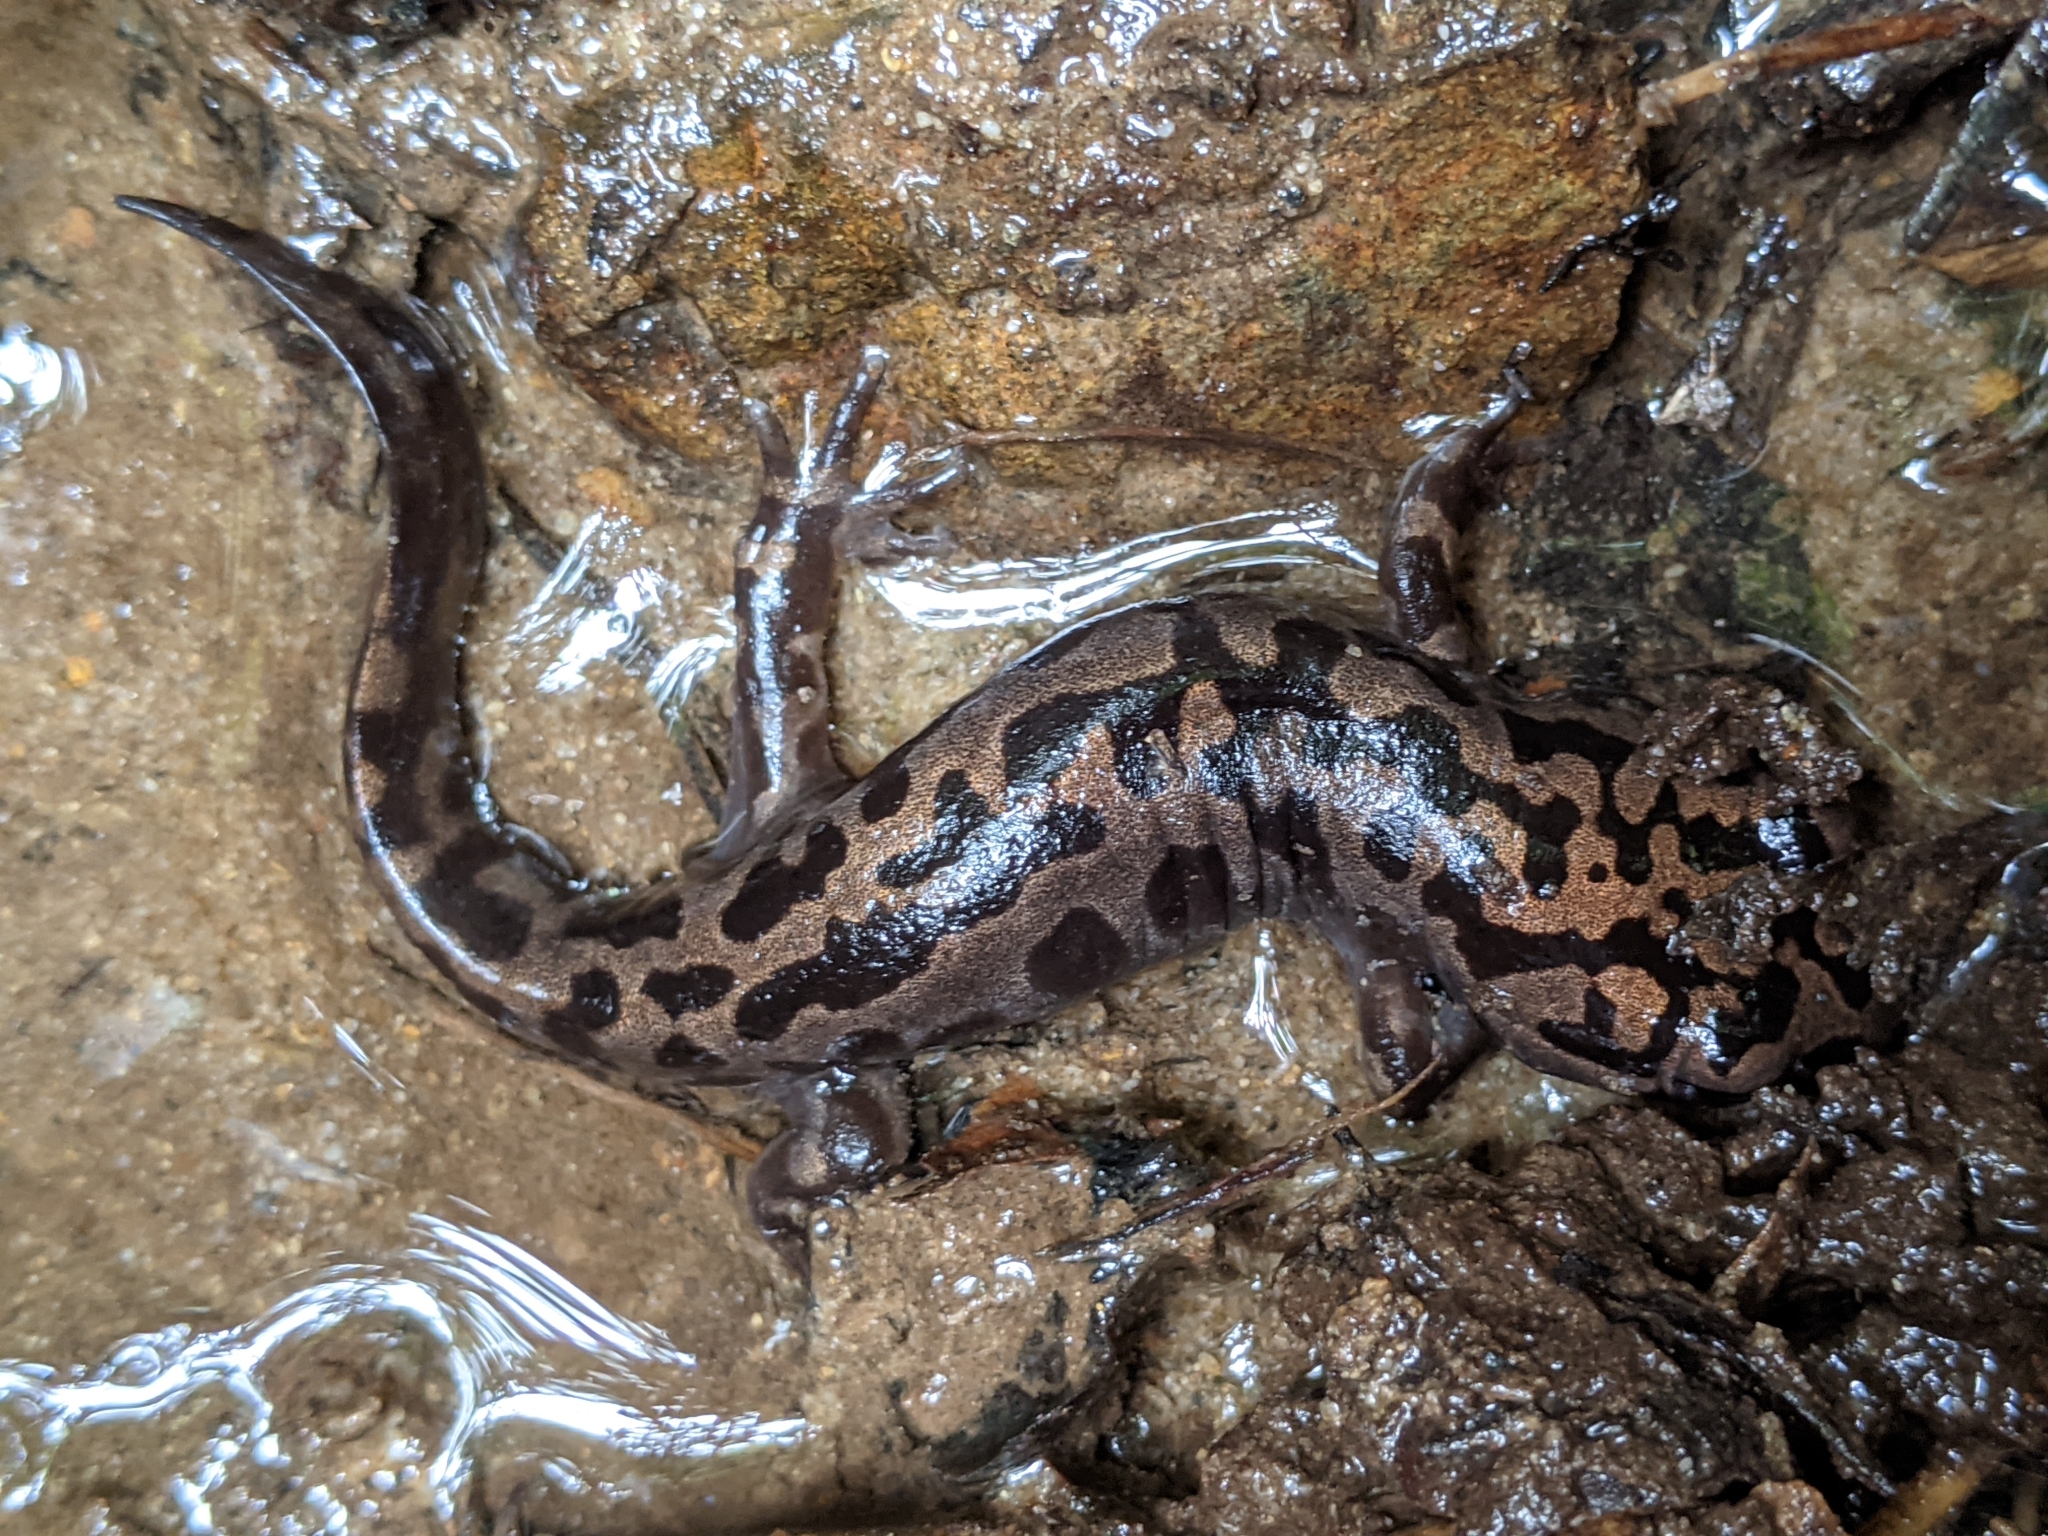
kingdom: Animalia
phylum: Chordata
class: Amphibia
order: Caudata
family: Ambystomatidae
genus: Dicamptodon
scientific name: Dicamptodon tenebrosus
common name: Coastal giant salamander
